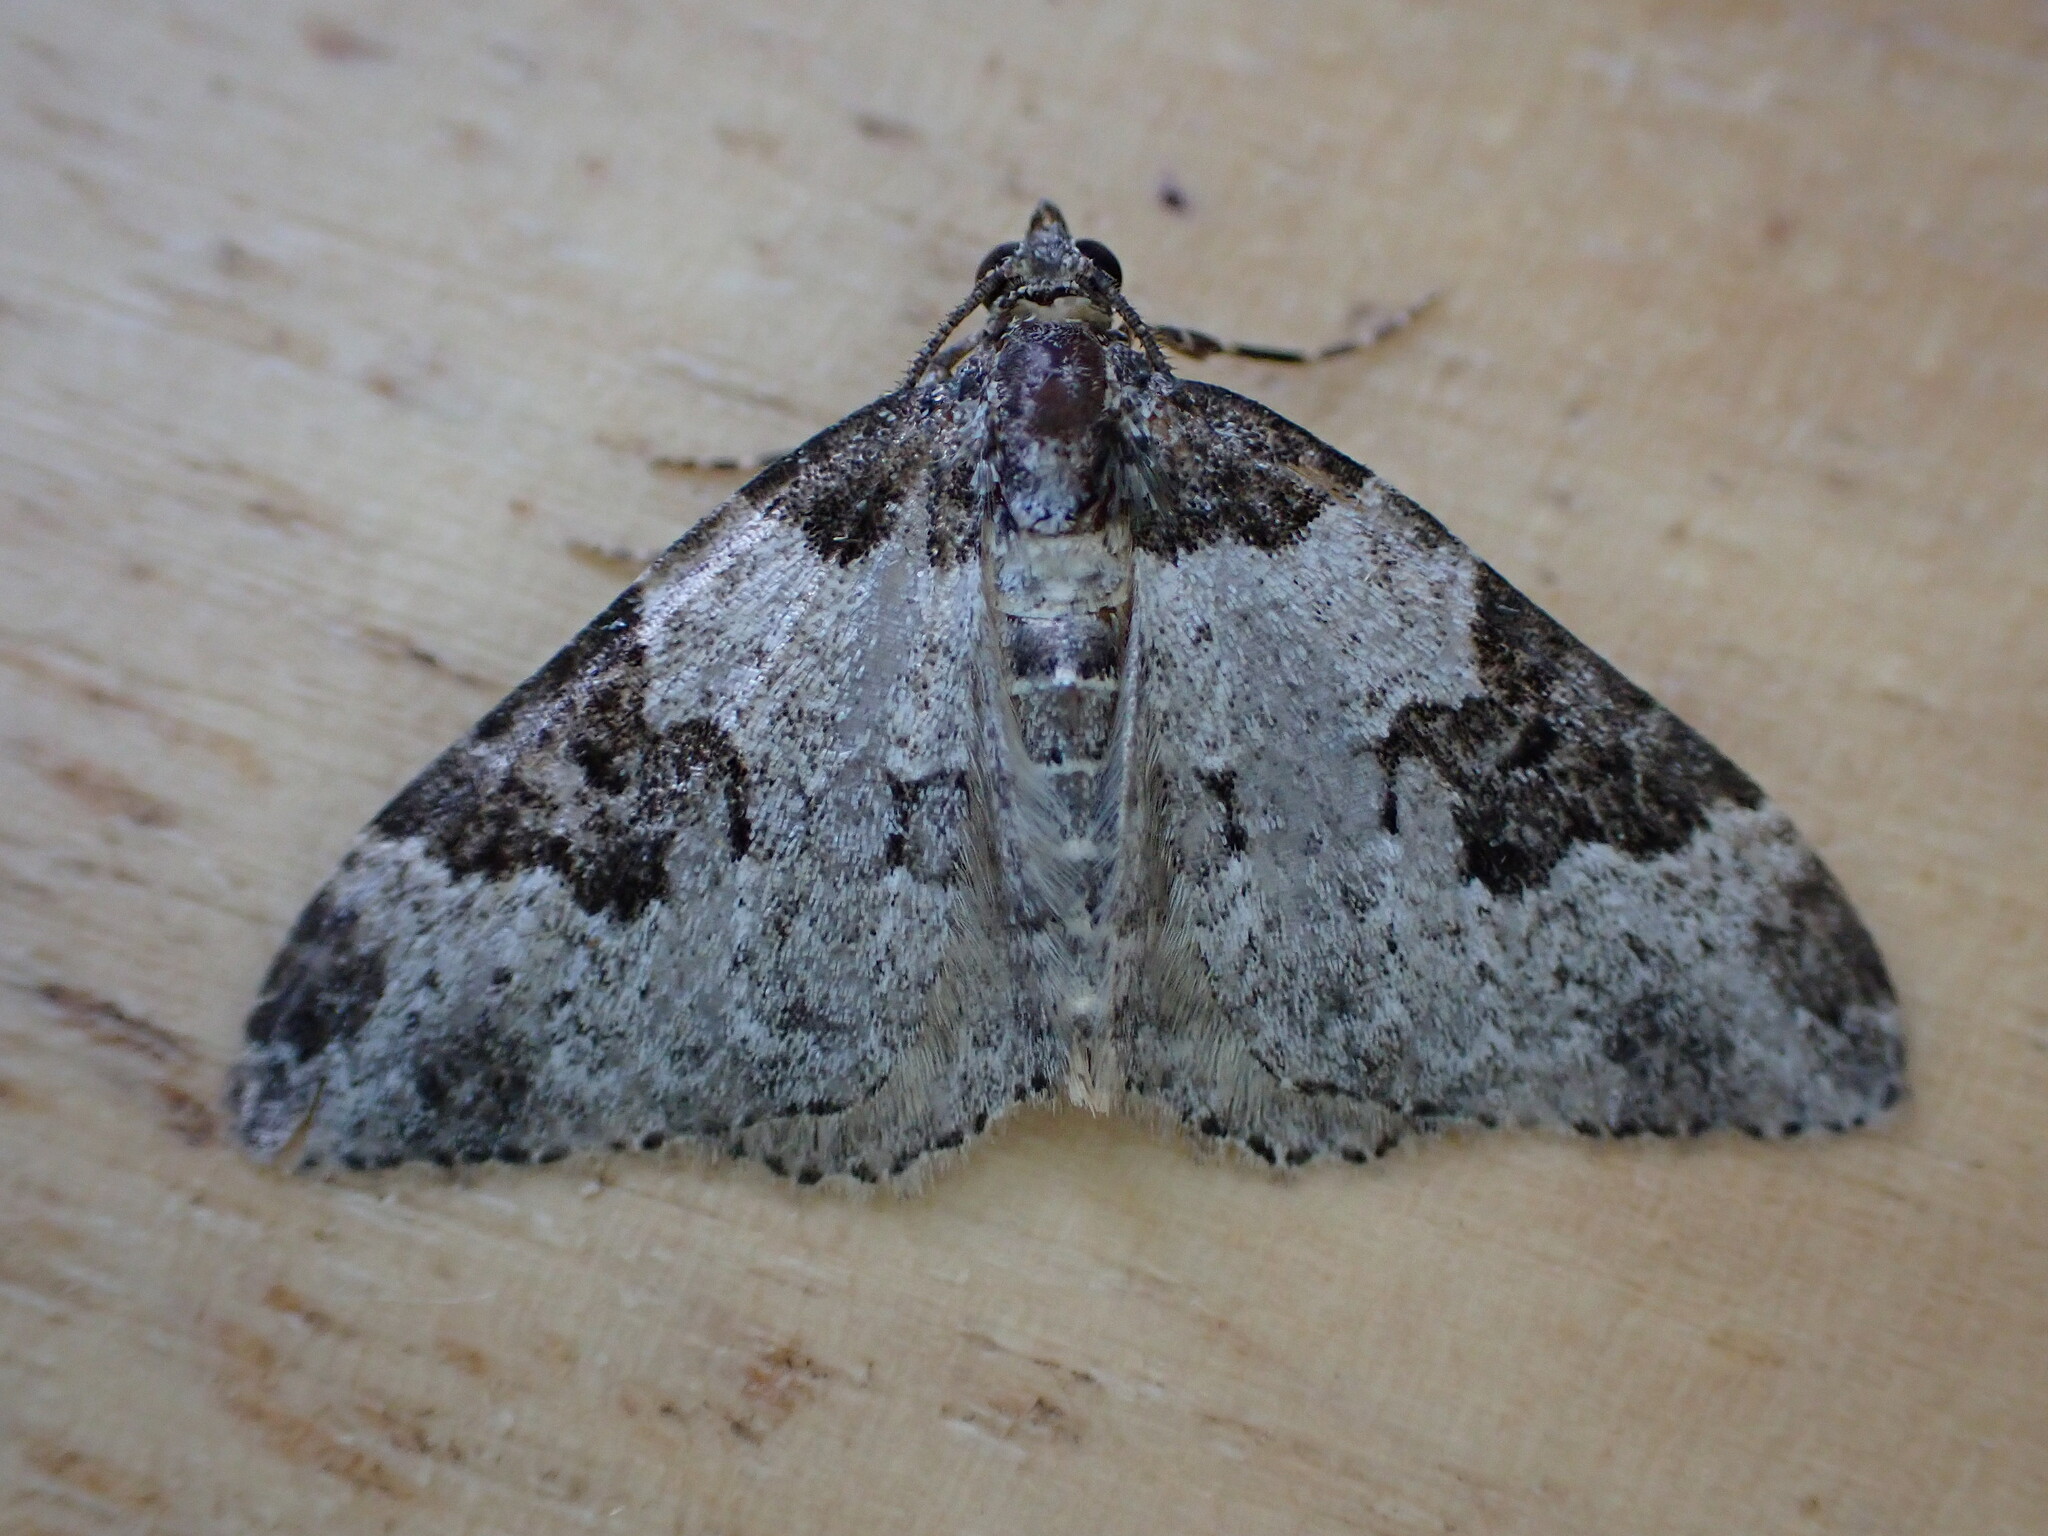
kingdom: Animalia
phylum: Arthropoda
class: Insecta
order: Lepidoptera
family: Geometridae
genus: Xanthorhoe
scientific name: Xanthorhoe fluctuata
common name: Garden carpet
